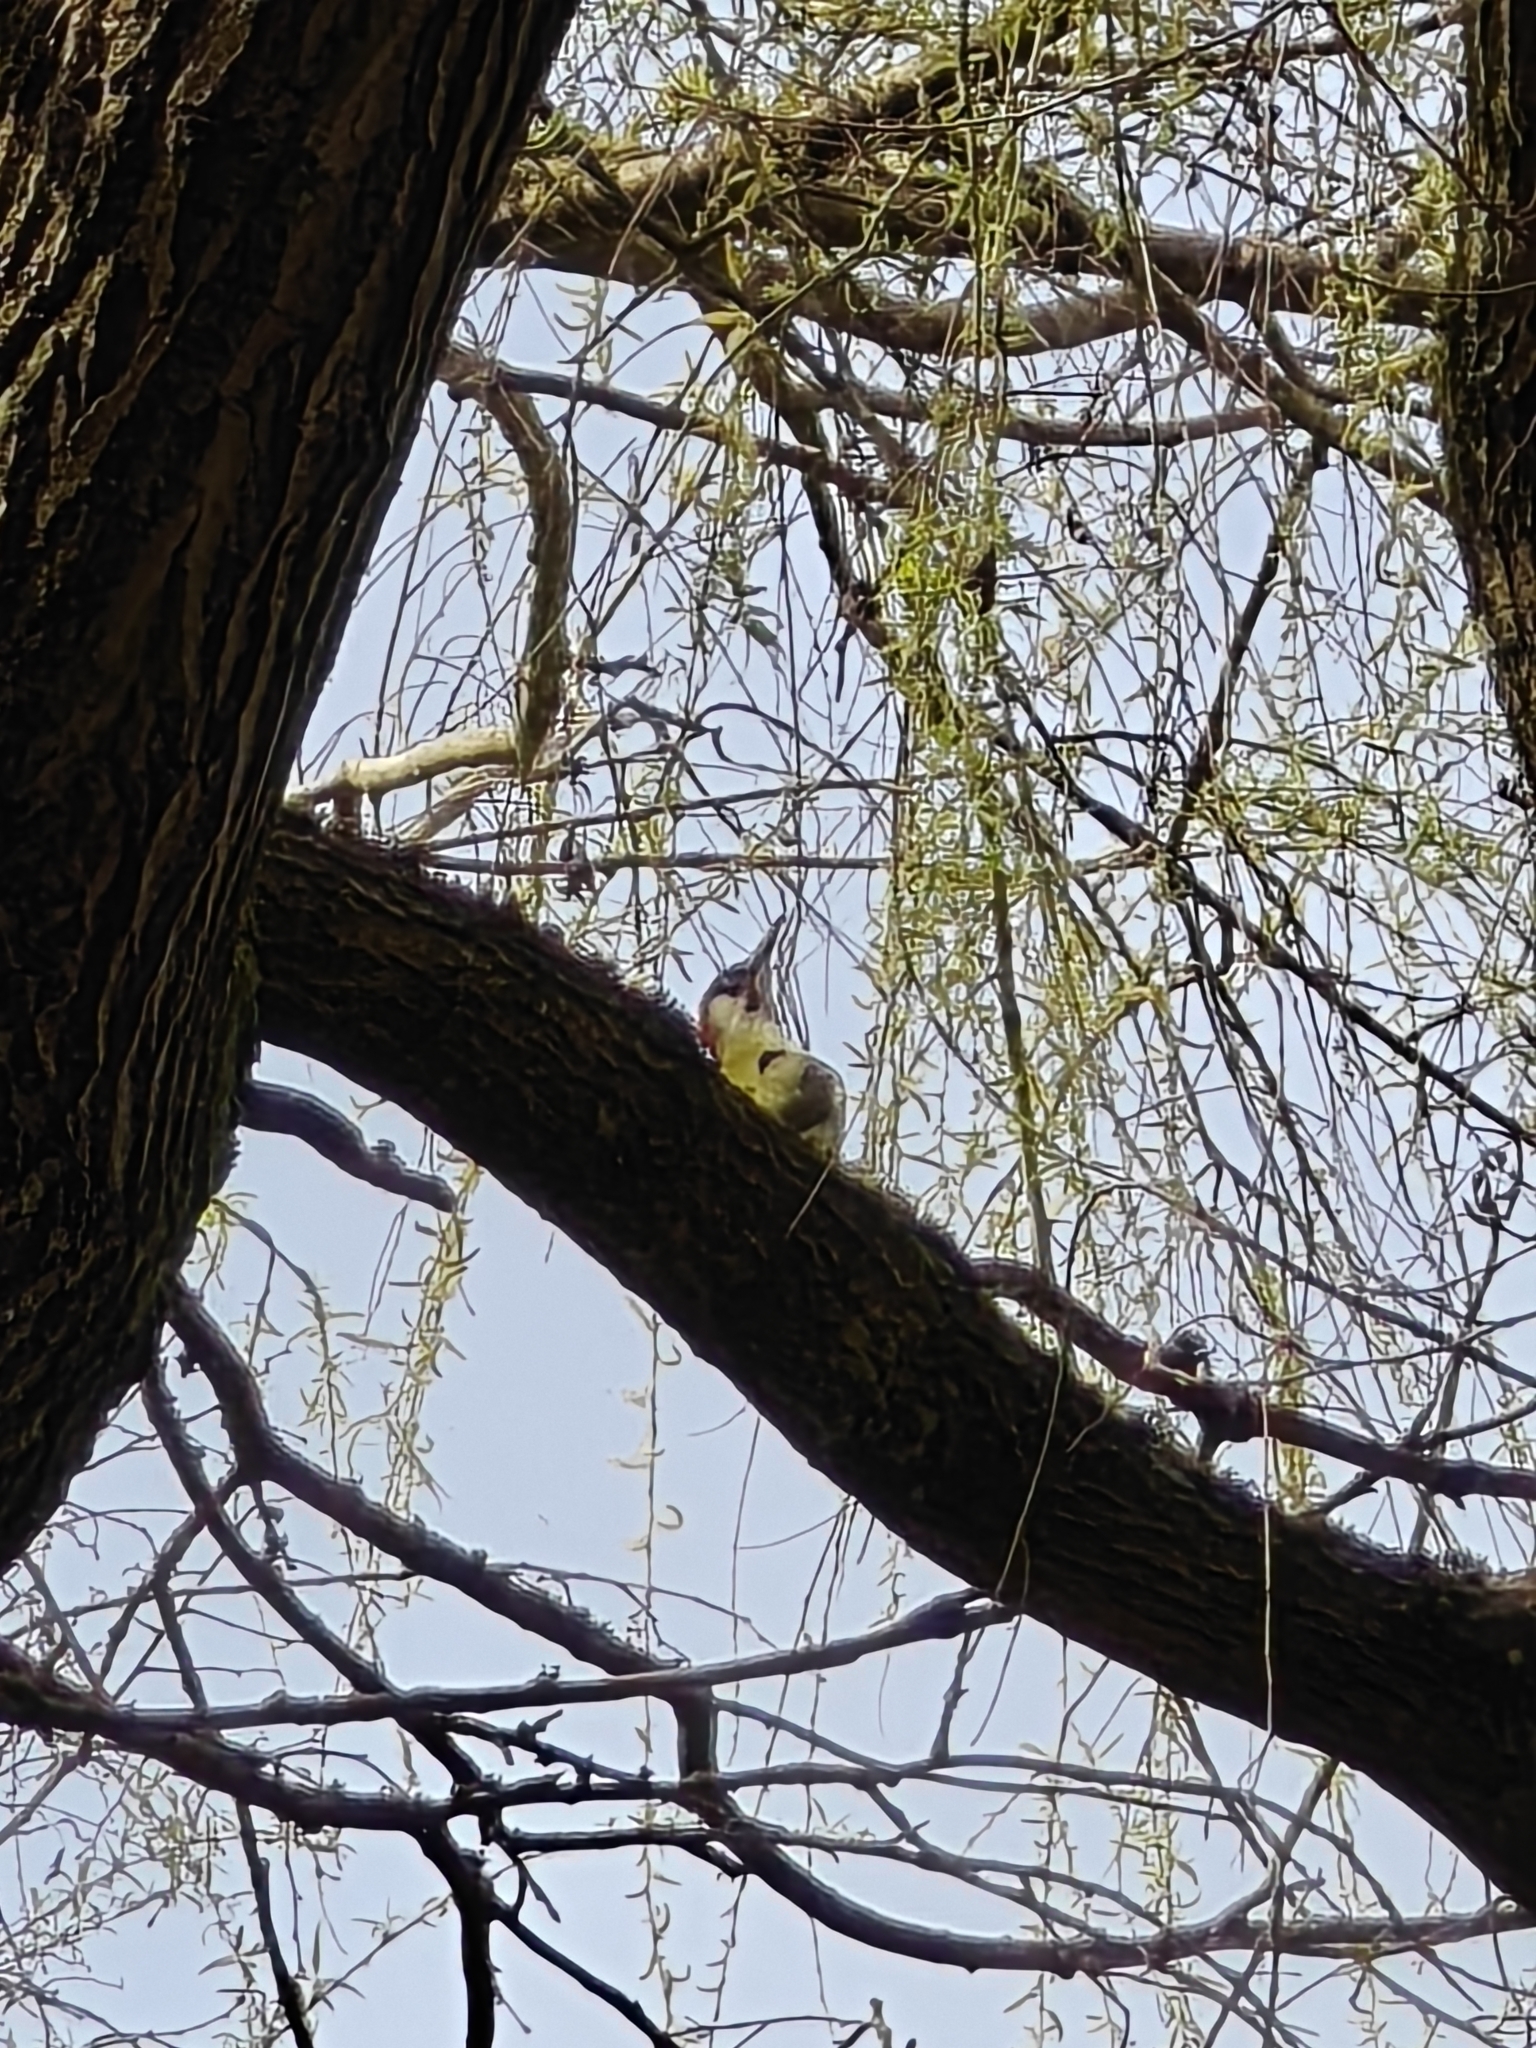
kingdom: Animalia
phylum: Chordata
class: Aves
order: Piciformes
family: Picidae
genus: Picus
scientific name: Picus viridis
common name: European green woodpecker
